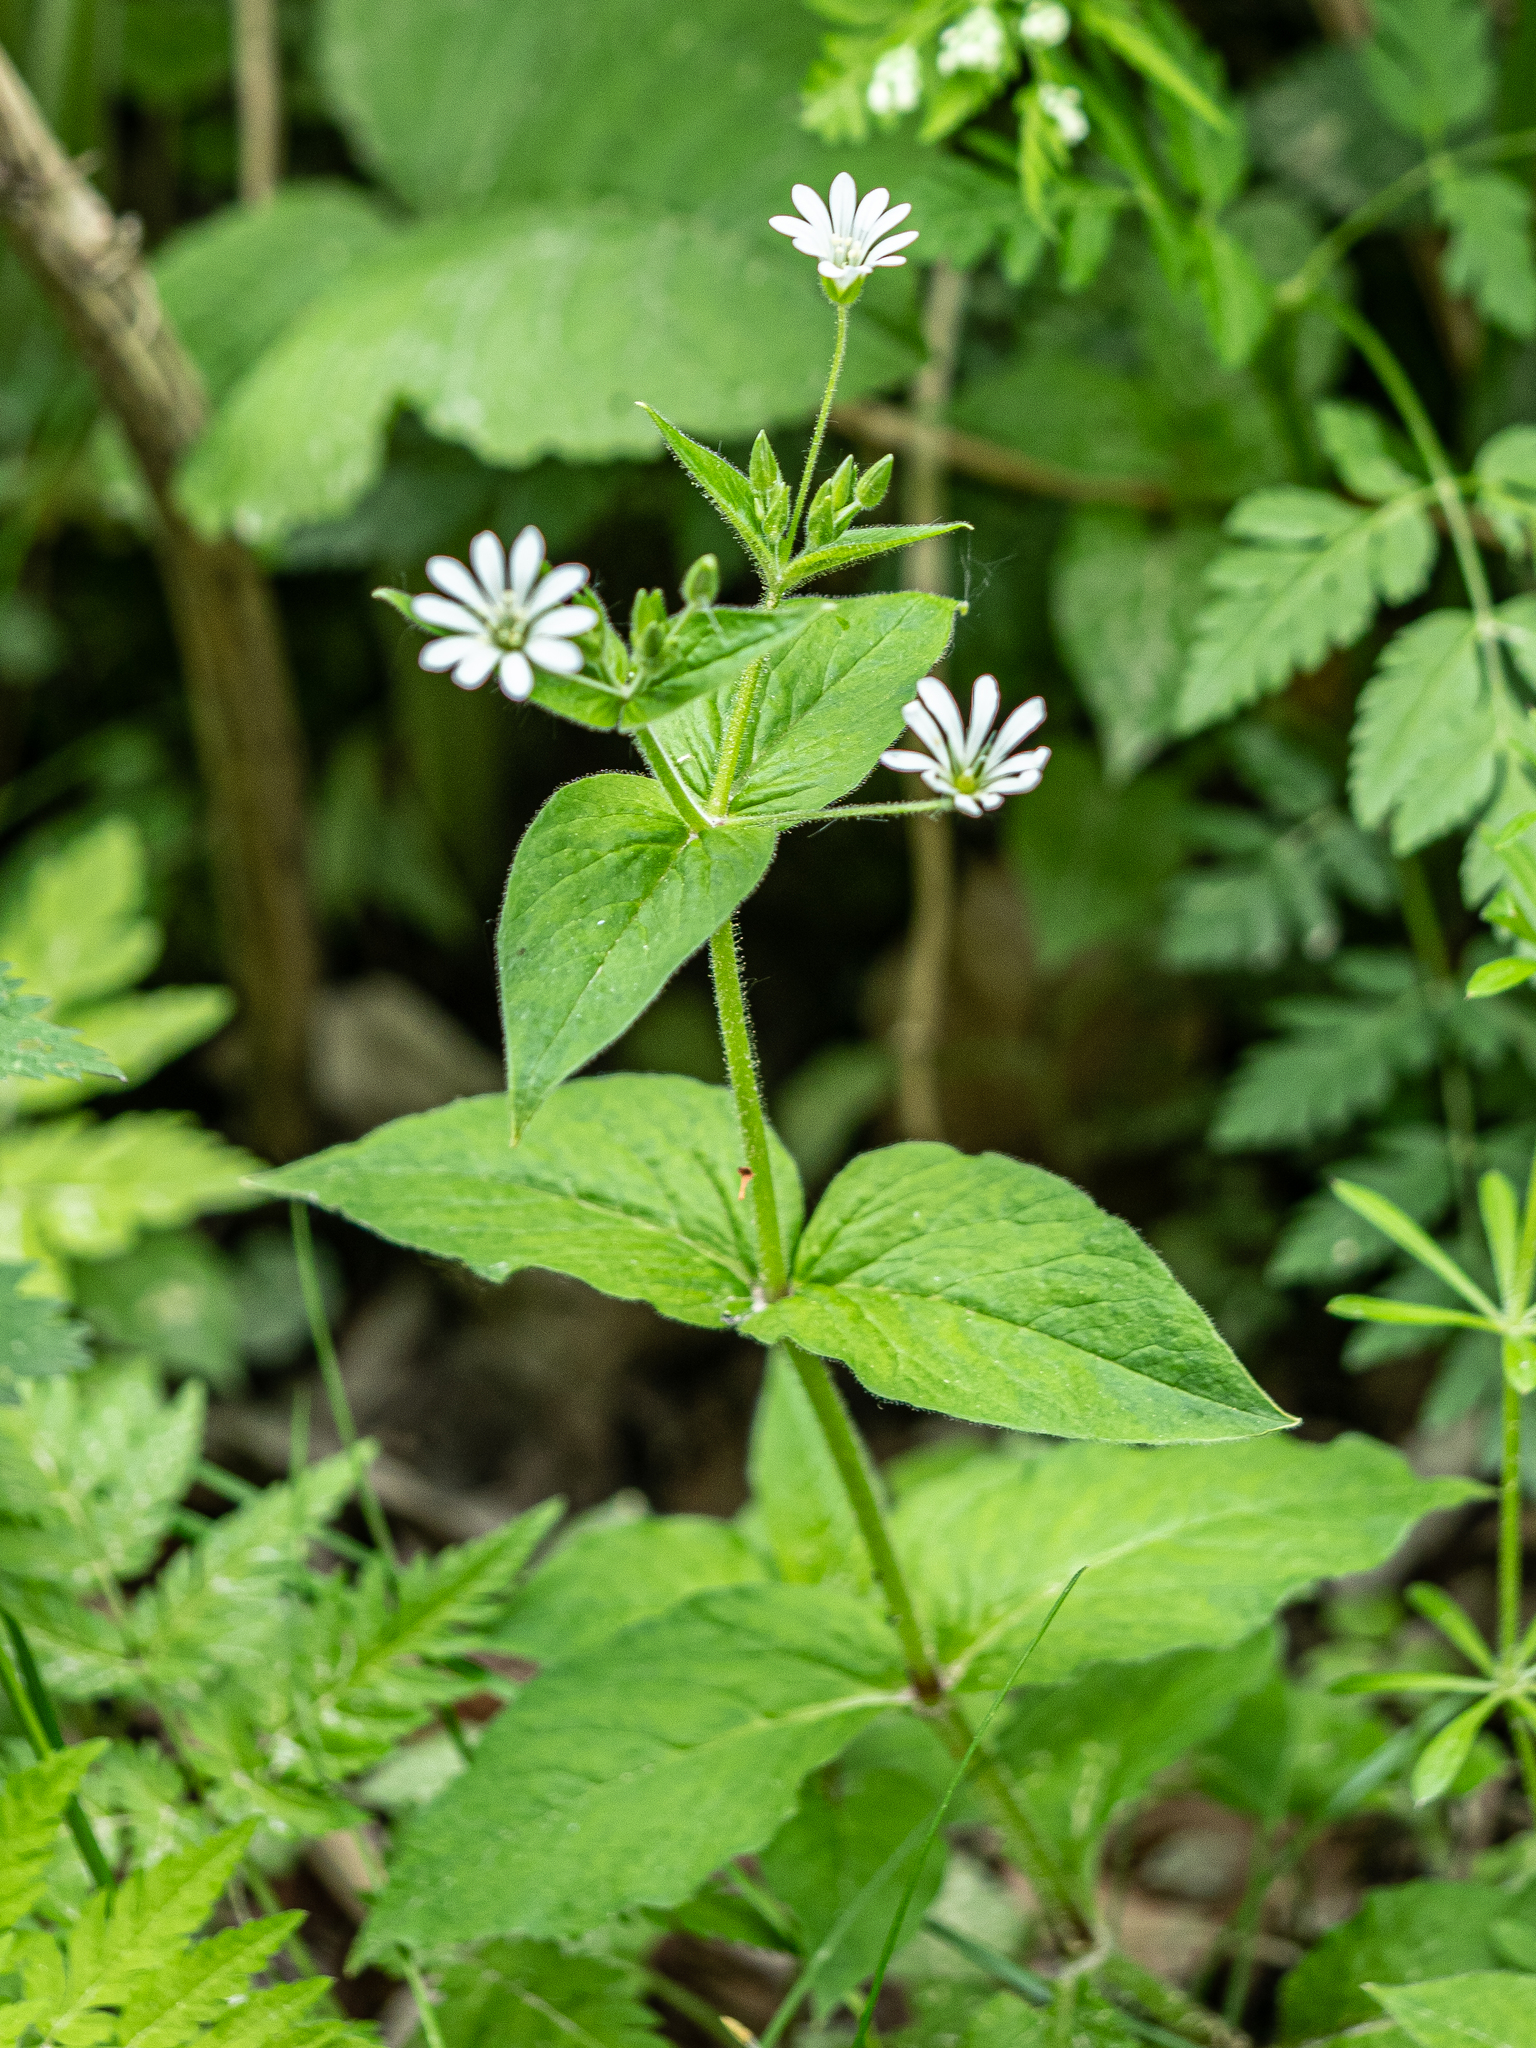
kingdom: Plantae
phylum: Tracheophyta
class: Magnoliopsida
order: Caryophyllales
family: Caryophyllaceae
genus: Stellaria
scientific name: Stellaria nemorum
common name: Wood stitchwort
